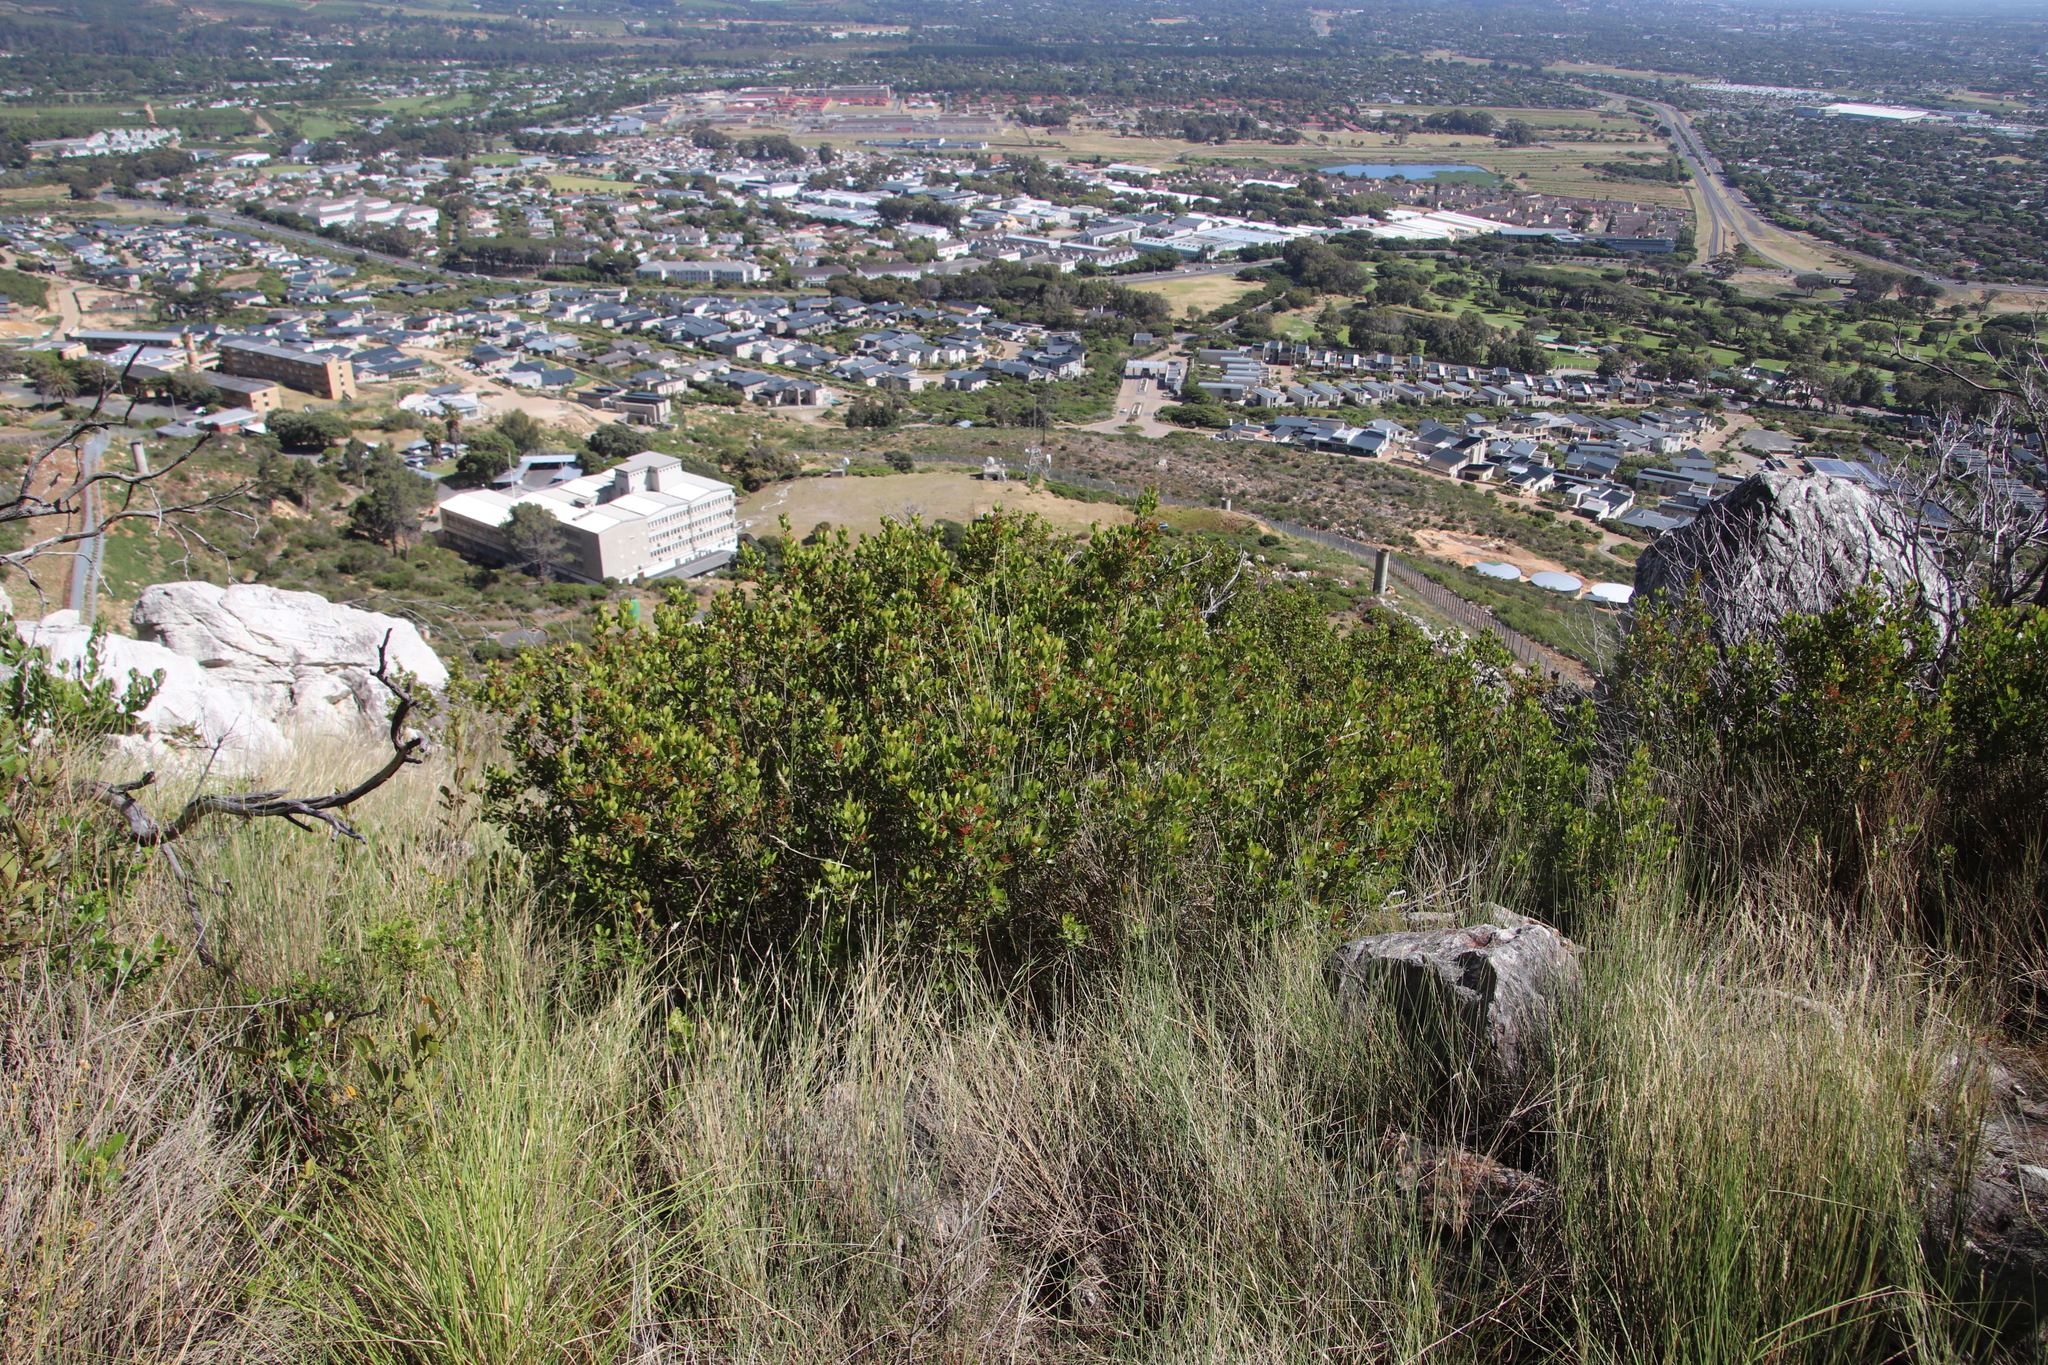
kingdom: Plantae
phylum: Tracheophyta
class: Magnoliopsida
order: Sapindales
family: Anacardiaceae
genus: Searsia
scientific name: Searsia lucida
